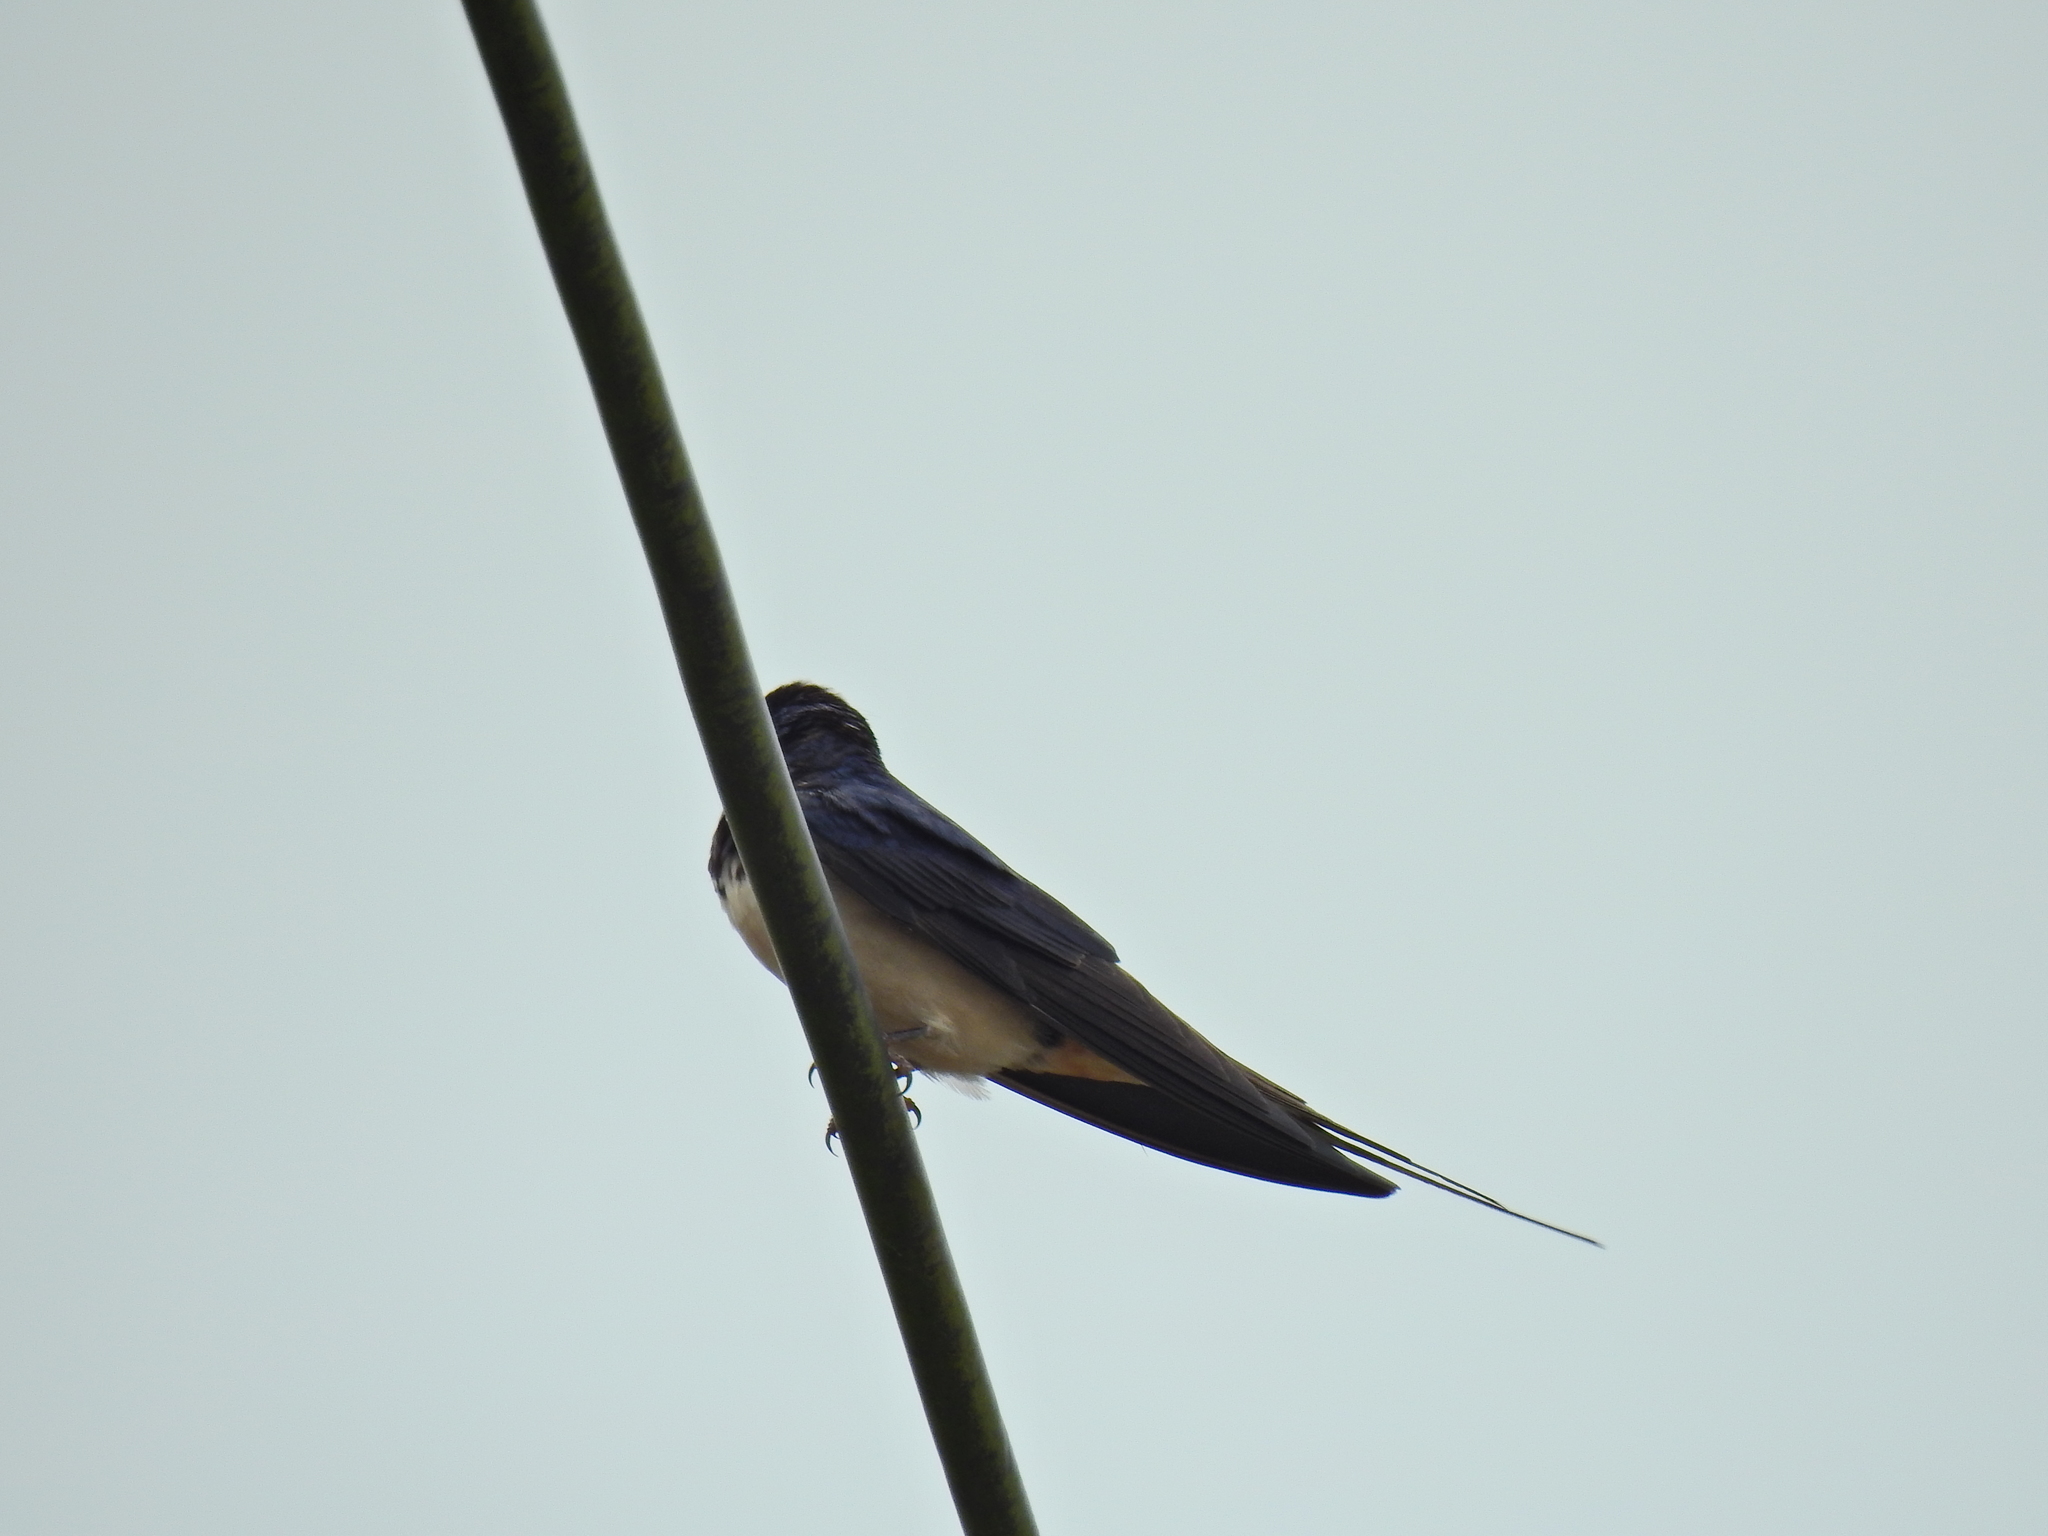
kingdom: Animalia
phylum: Chordata
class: Aves
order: Passeriformes
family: Hirundinidae
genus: Hirundo
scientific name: Hirundo rustica
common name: Barn swallow
